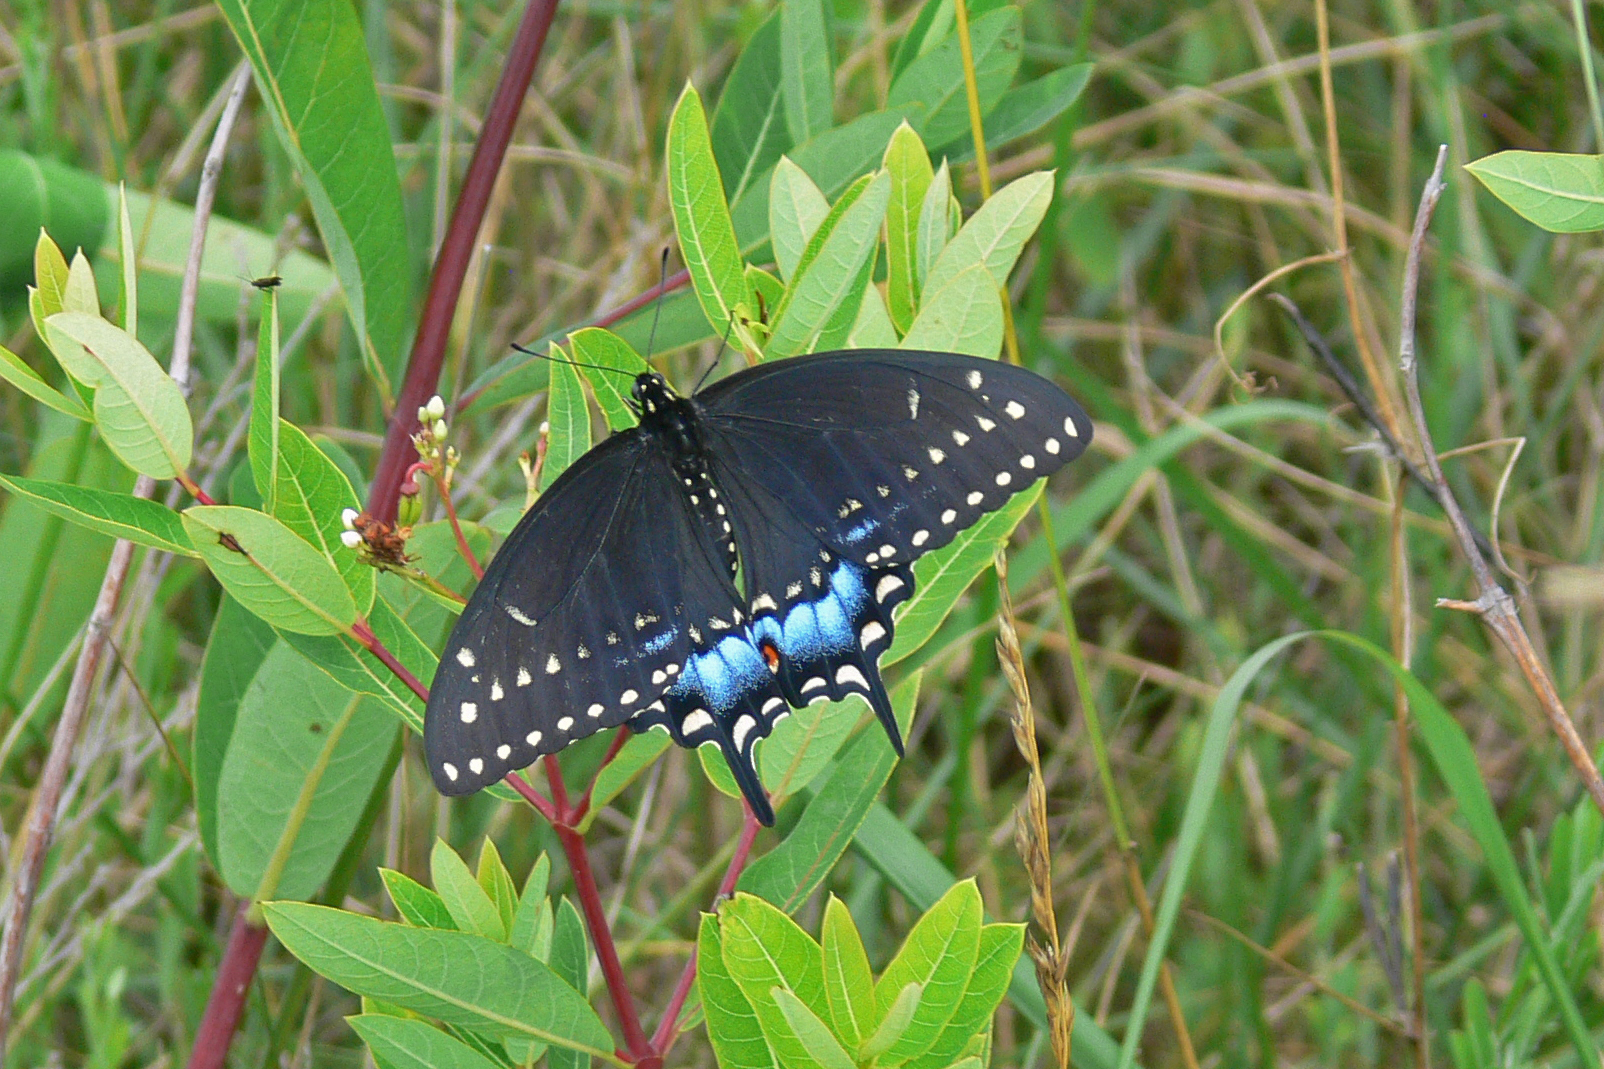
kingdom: Animalia
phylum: Arthropoda
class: Insecta
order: Lepidoptera
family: Papilionidae
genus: Papilio
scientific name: Papilio polyxenes
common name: Black swallowtail
